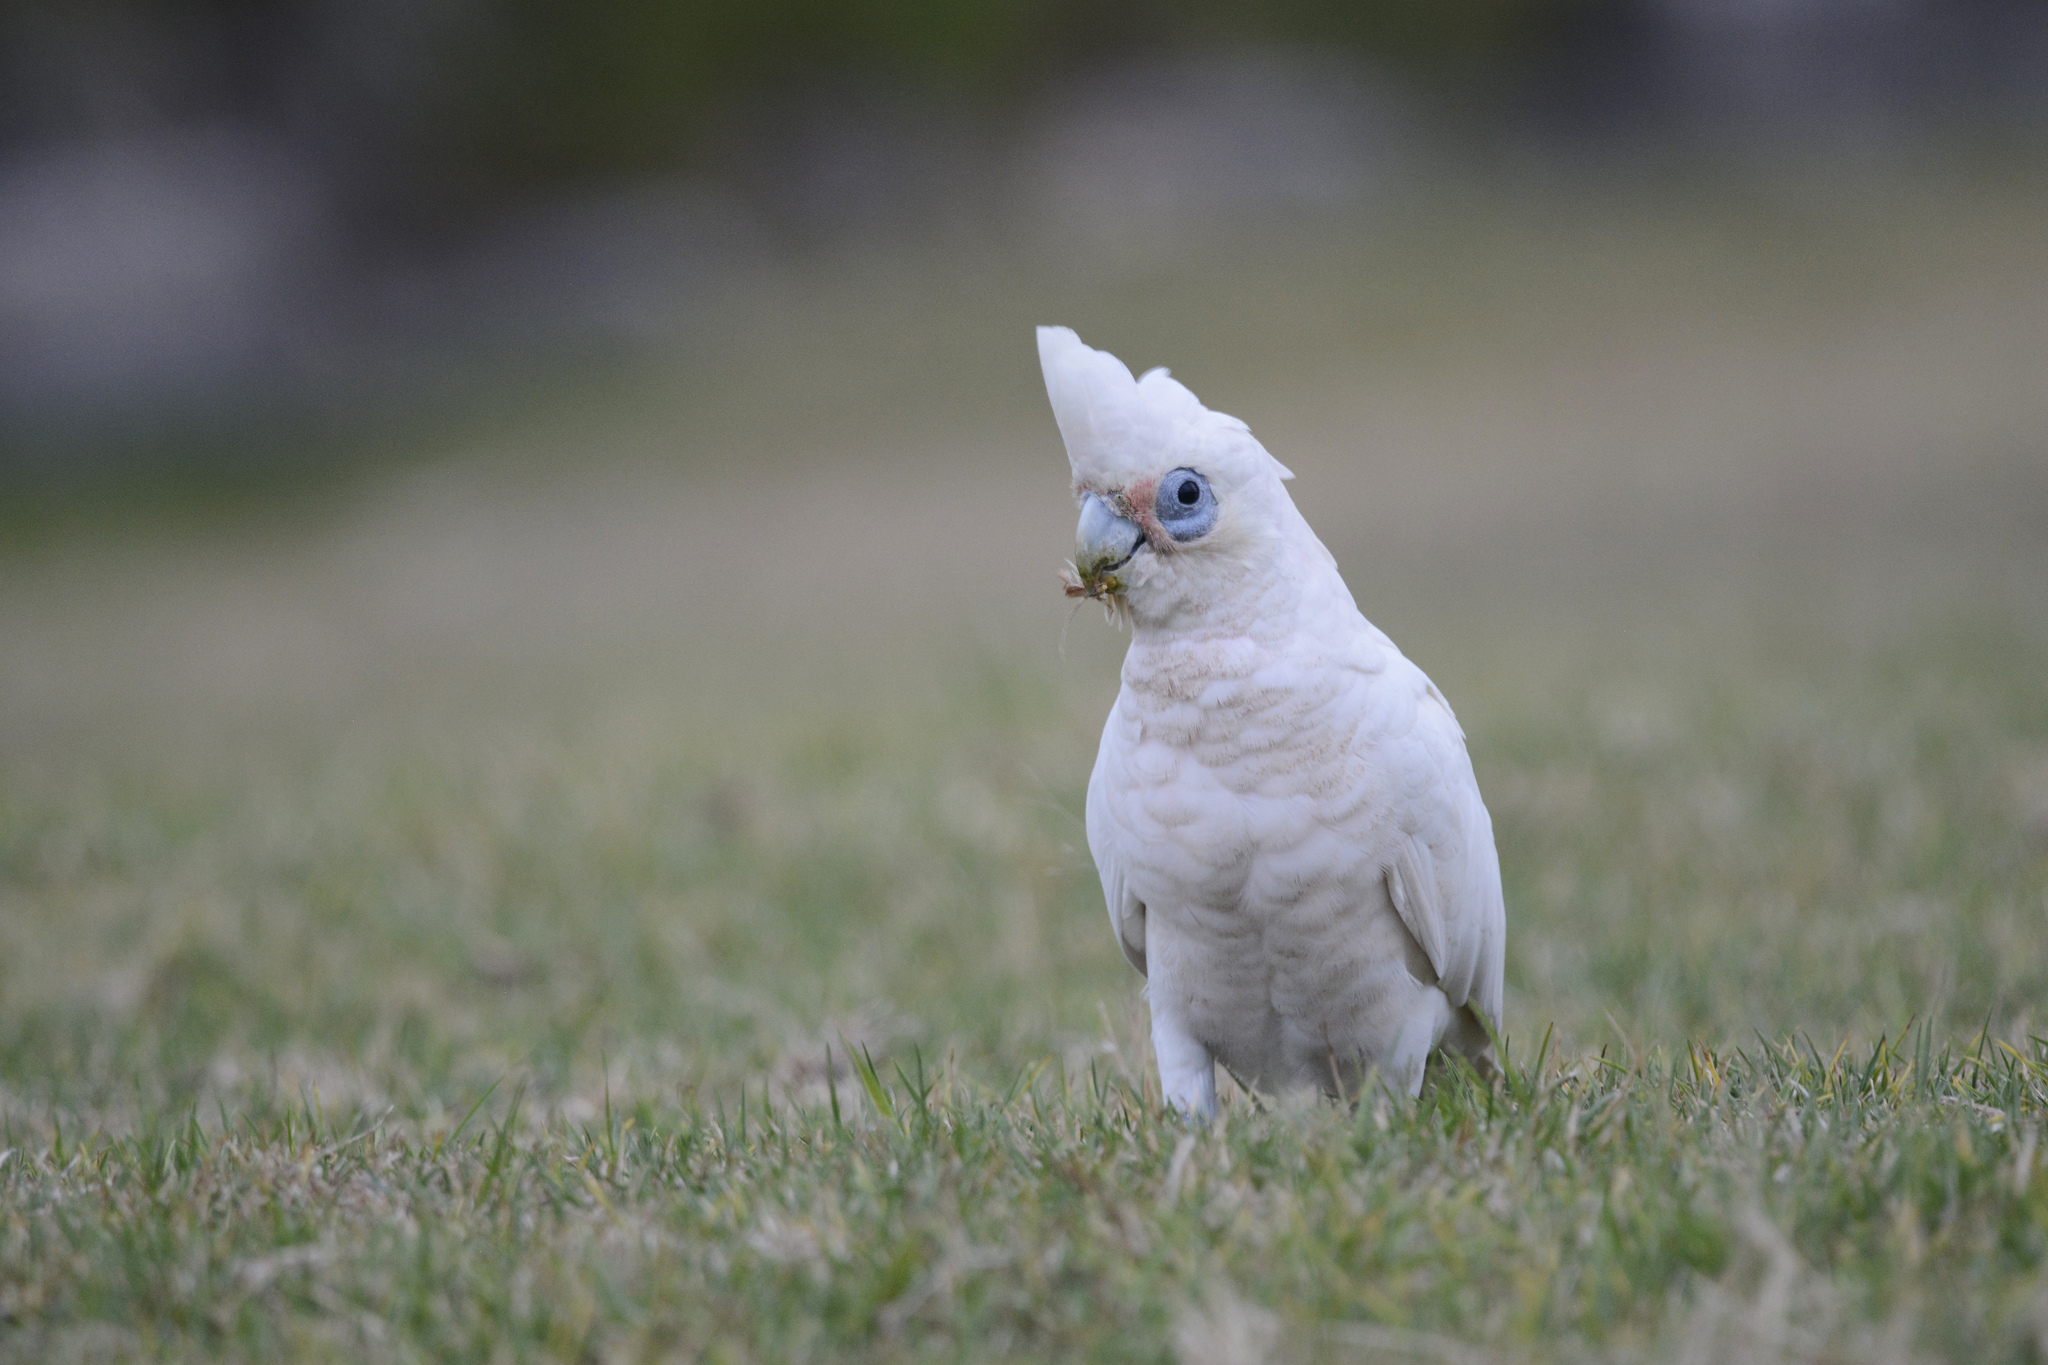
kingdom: Animalia
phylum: Chordata
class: Aves
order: Psittaciformes
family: Psittacidae
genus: Cacatua
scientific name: Cacatua sanguinea
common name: Little corella
